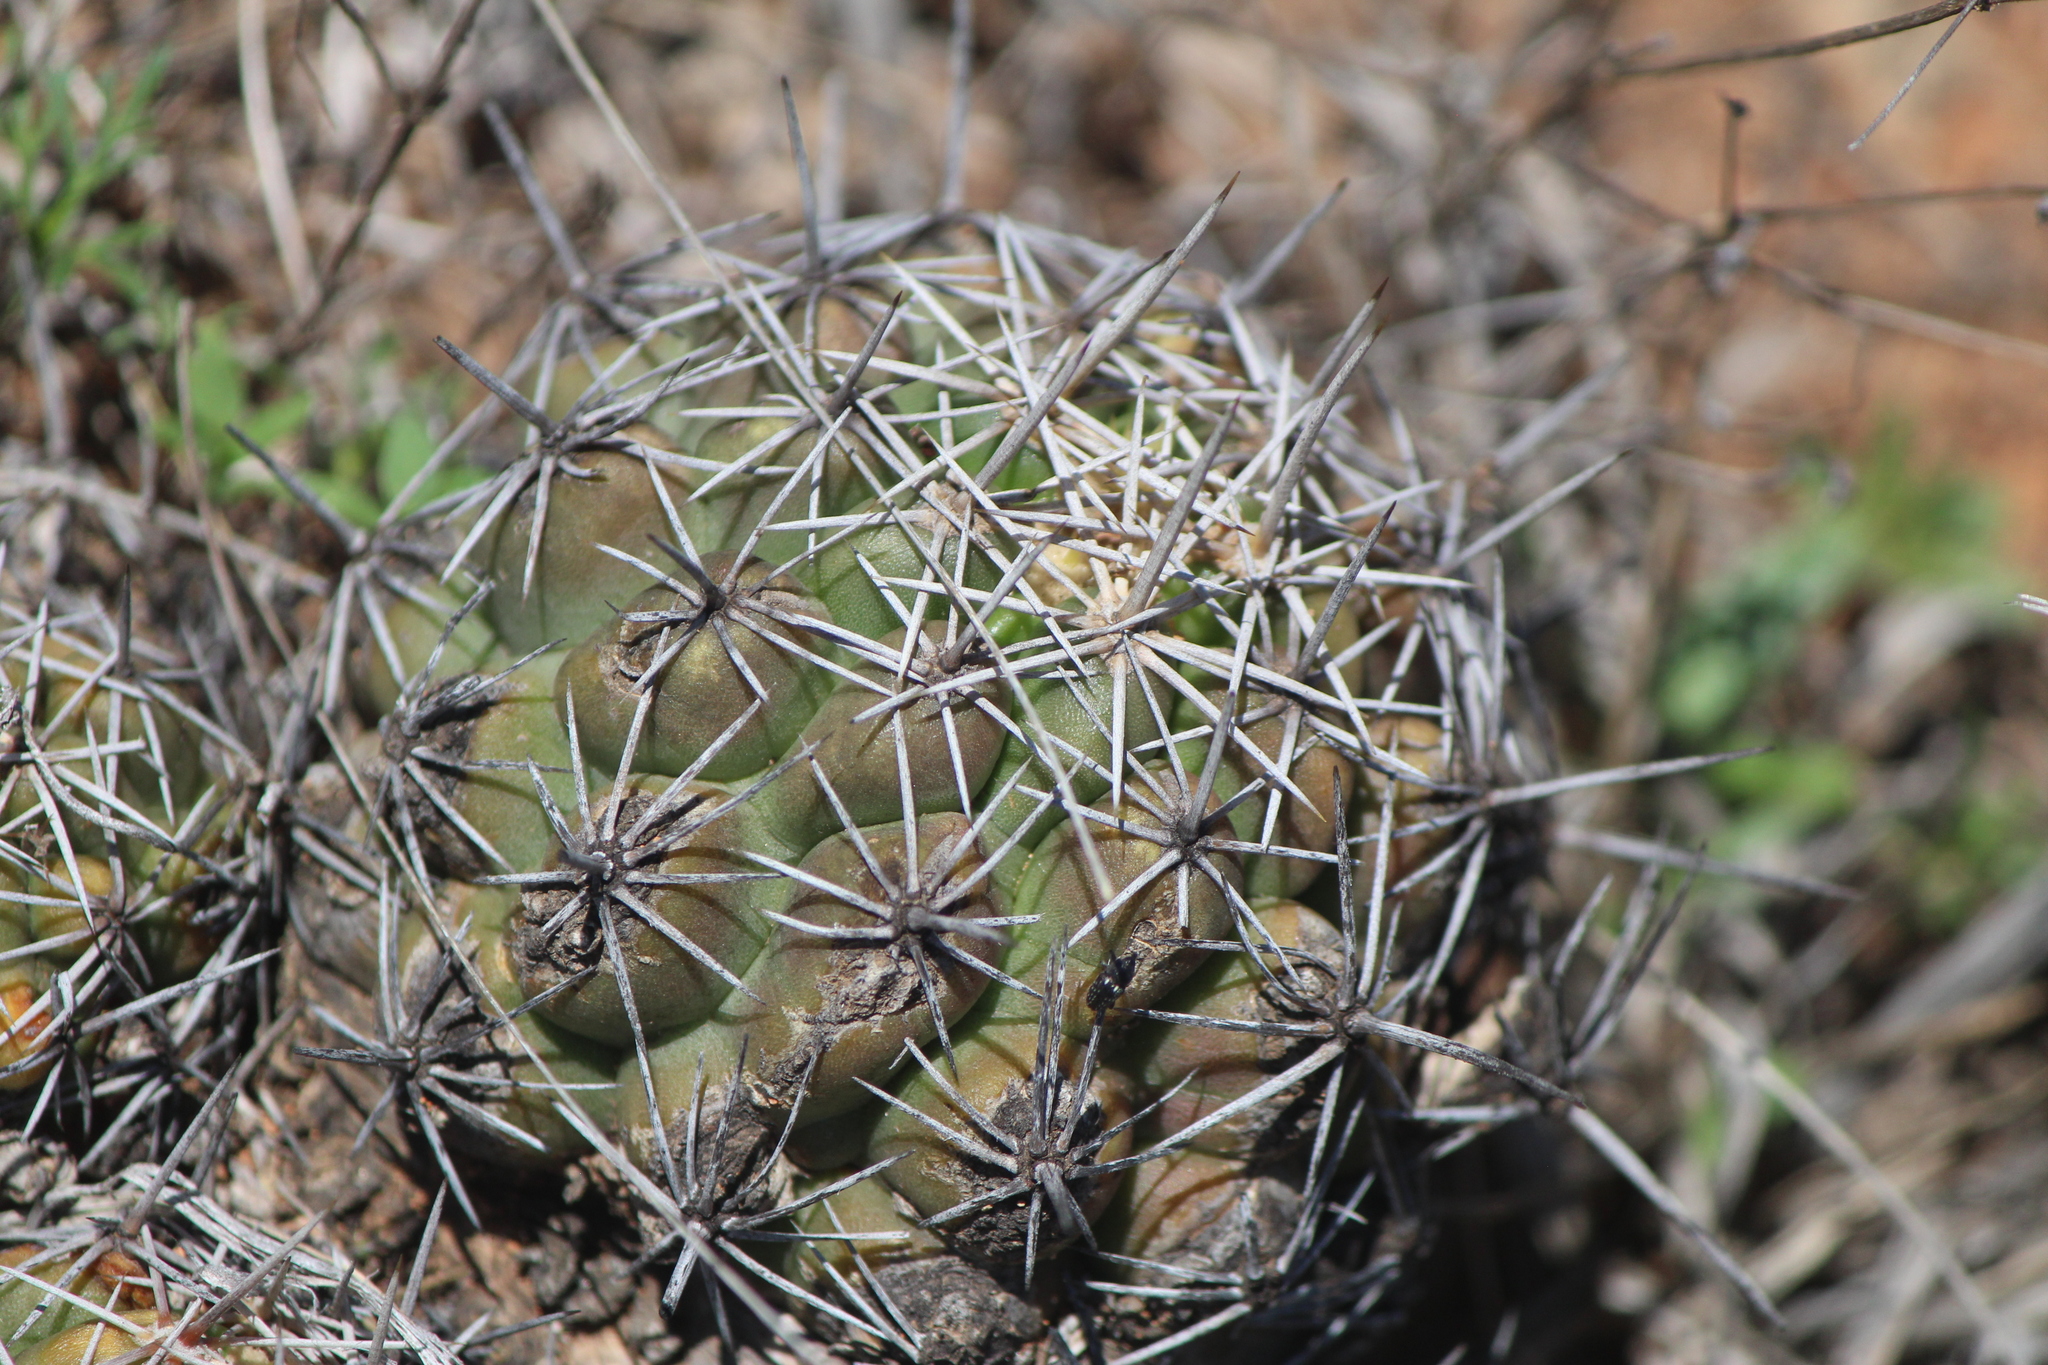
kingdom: Plantae
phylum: Tracheophyta
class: Magnoliopsida
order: Caryophyllales
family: Cactaceae
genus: Thelocactus
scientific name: Thelocactus leucacanthus
